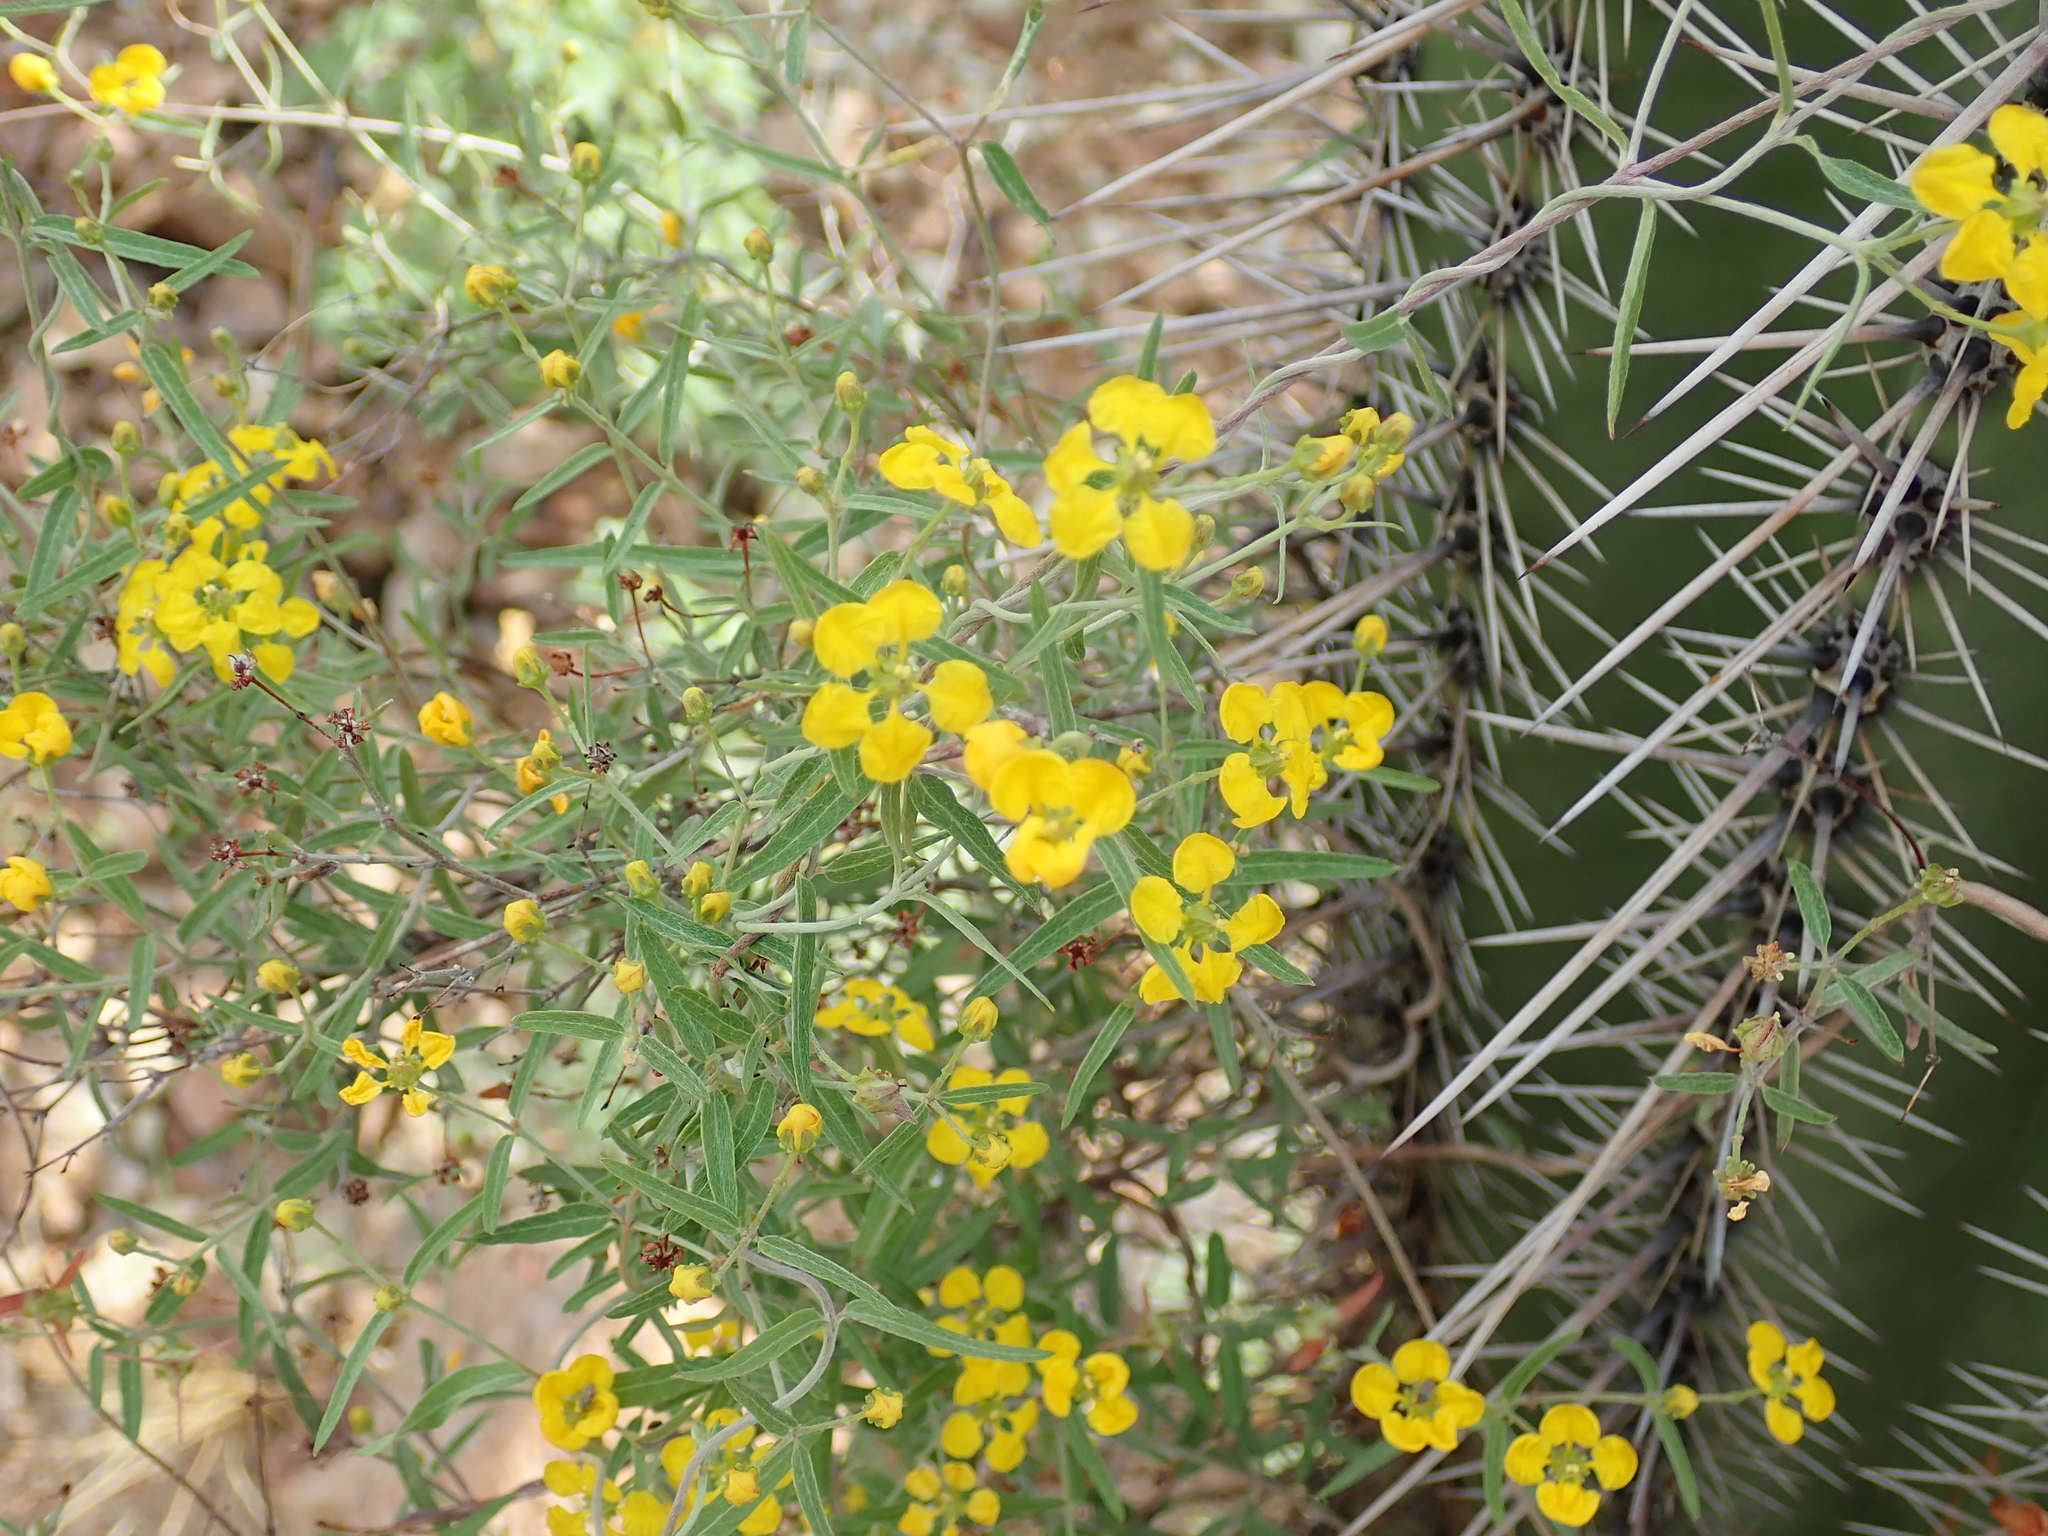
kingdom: Plantae
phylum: Tracheophyta
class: Magnoliopsida
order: Malpighiales
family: Malpighiaceae
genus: Cottsia
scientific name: Cottsia gracilis
